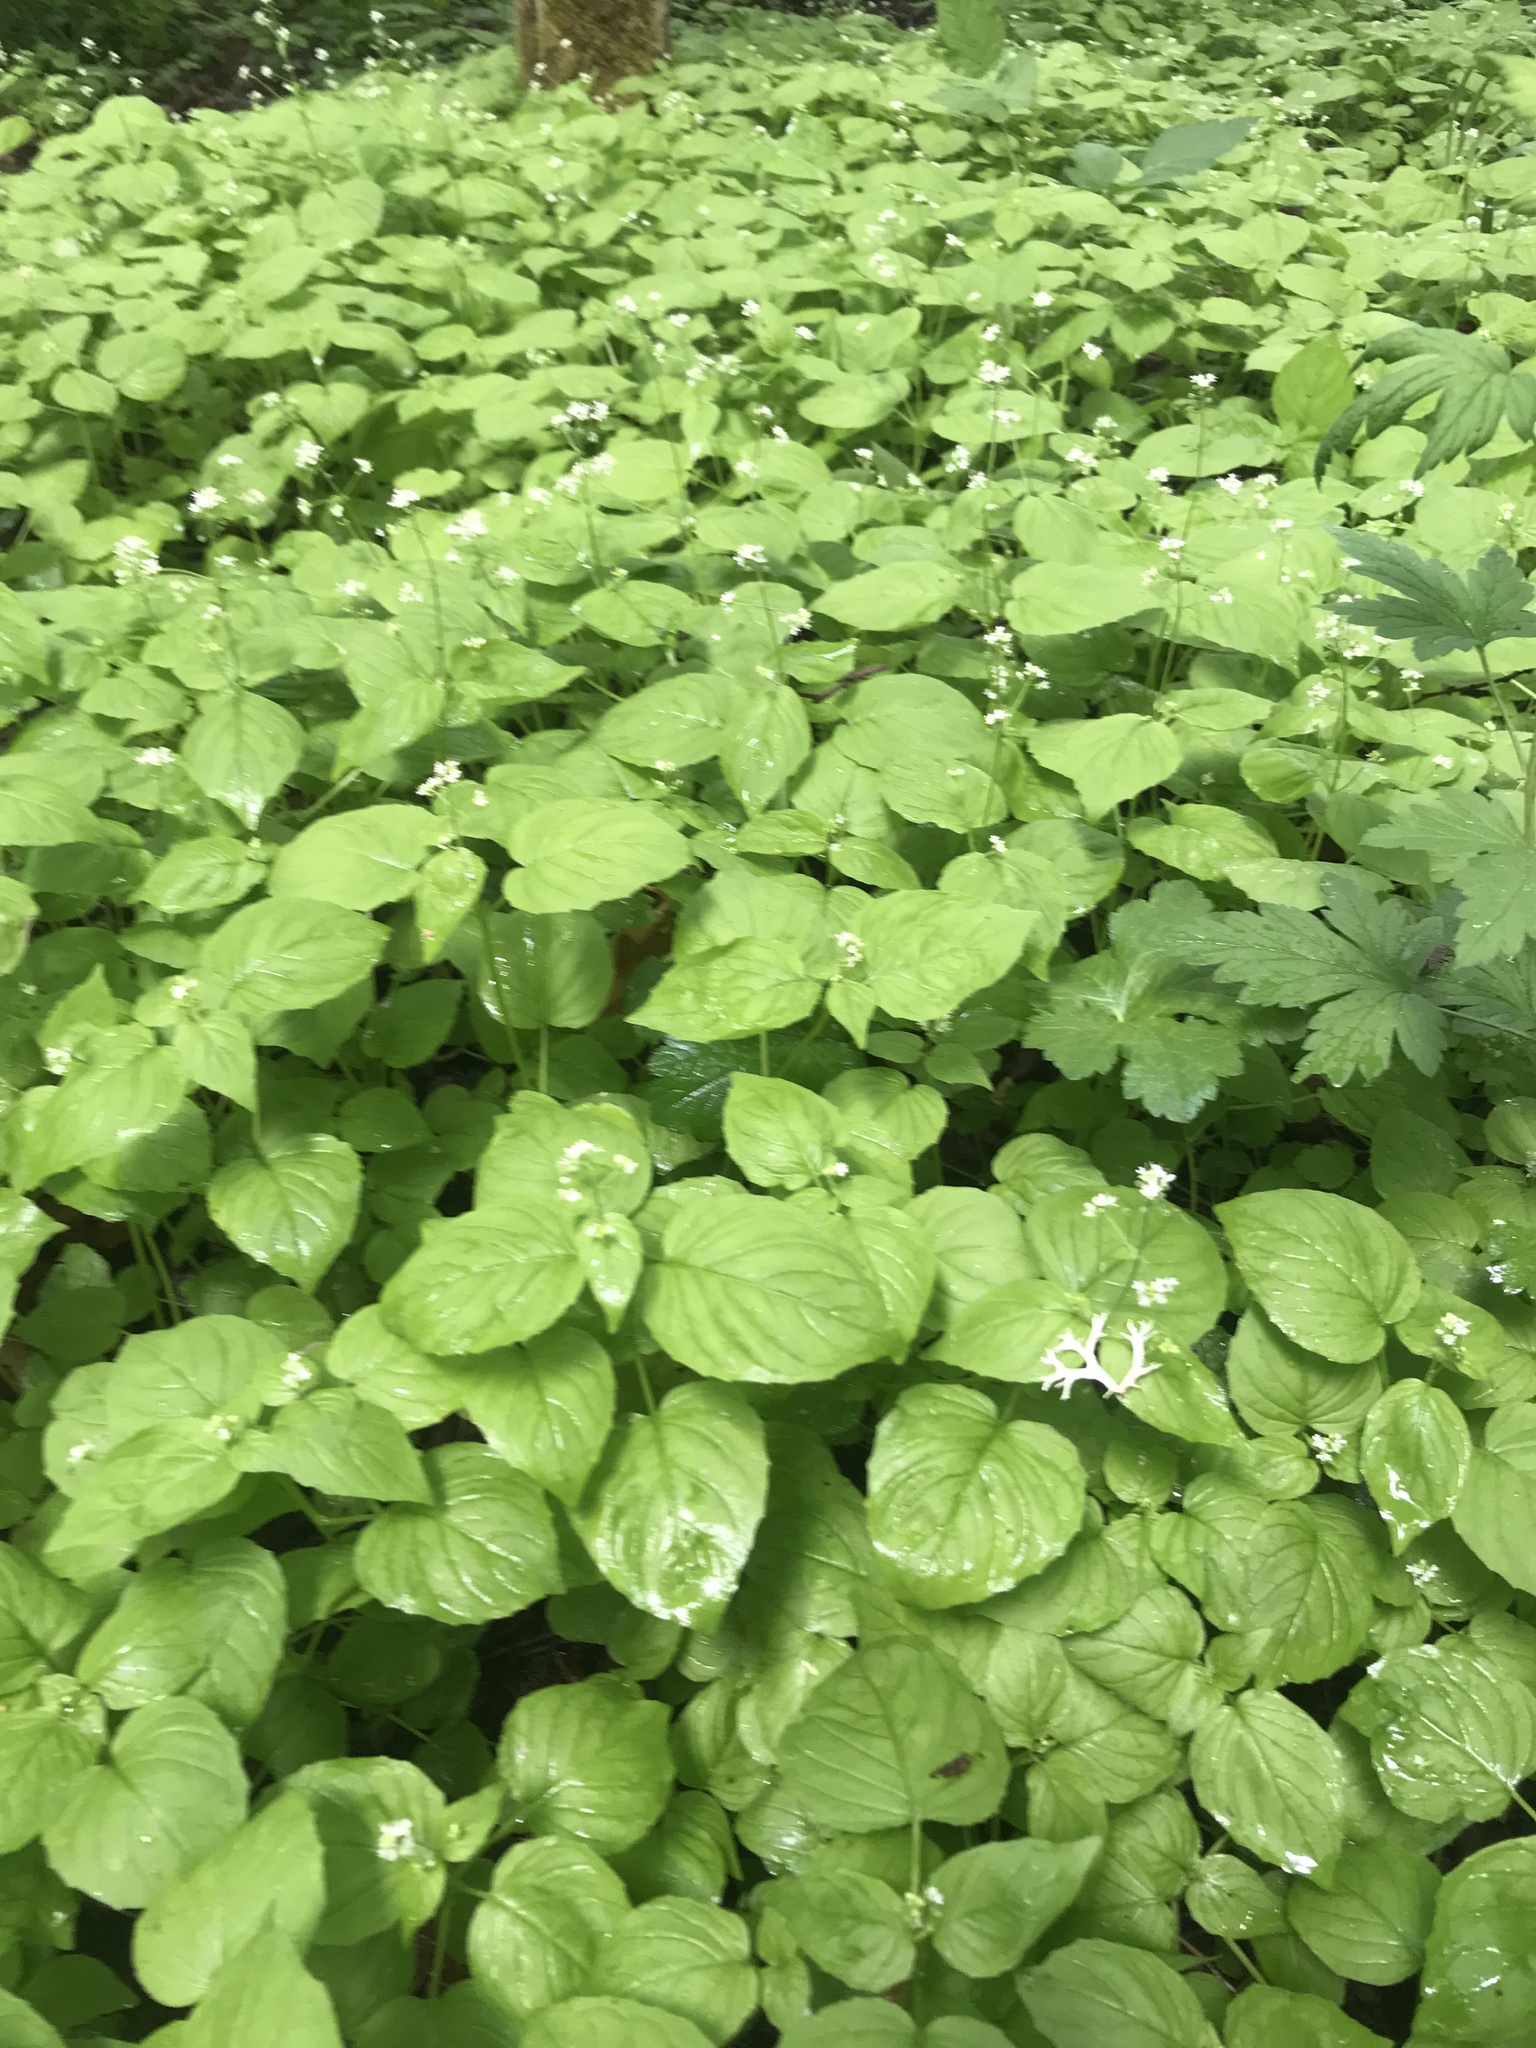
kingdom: Plantae
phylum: Tracheophyta
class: Magnoliopsida
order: Myrtales
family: Onagraceae
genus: Circaea
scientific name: Circaea alpina
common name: Alpine enchanter's-nightshade
